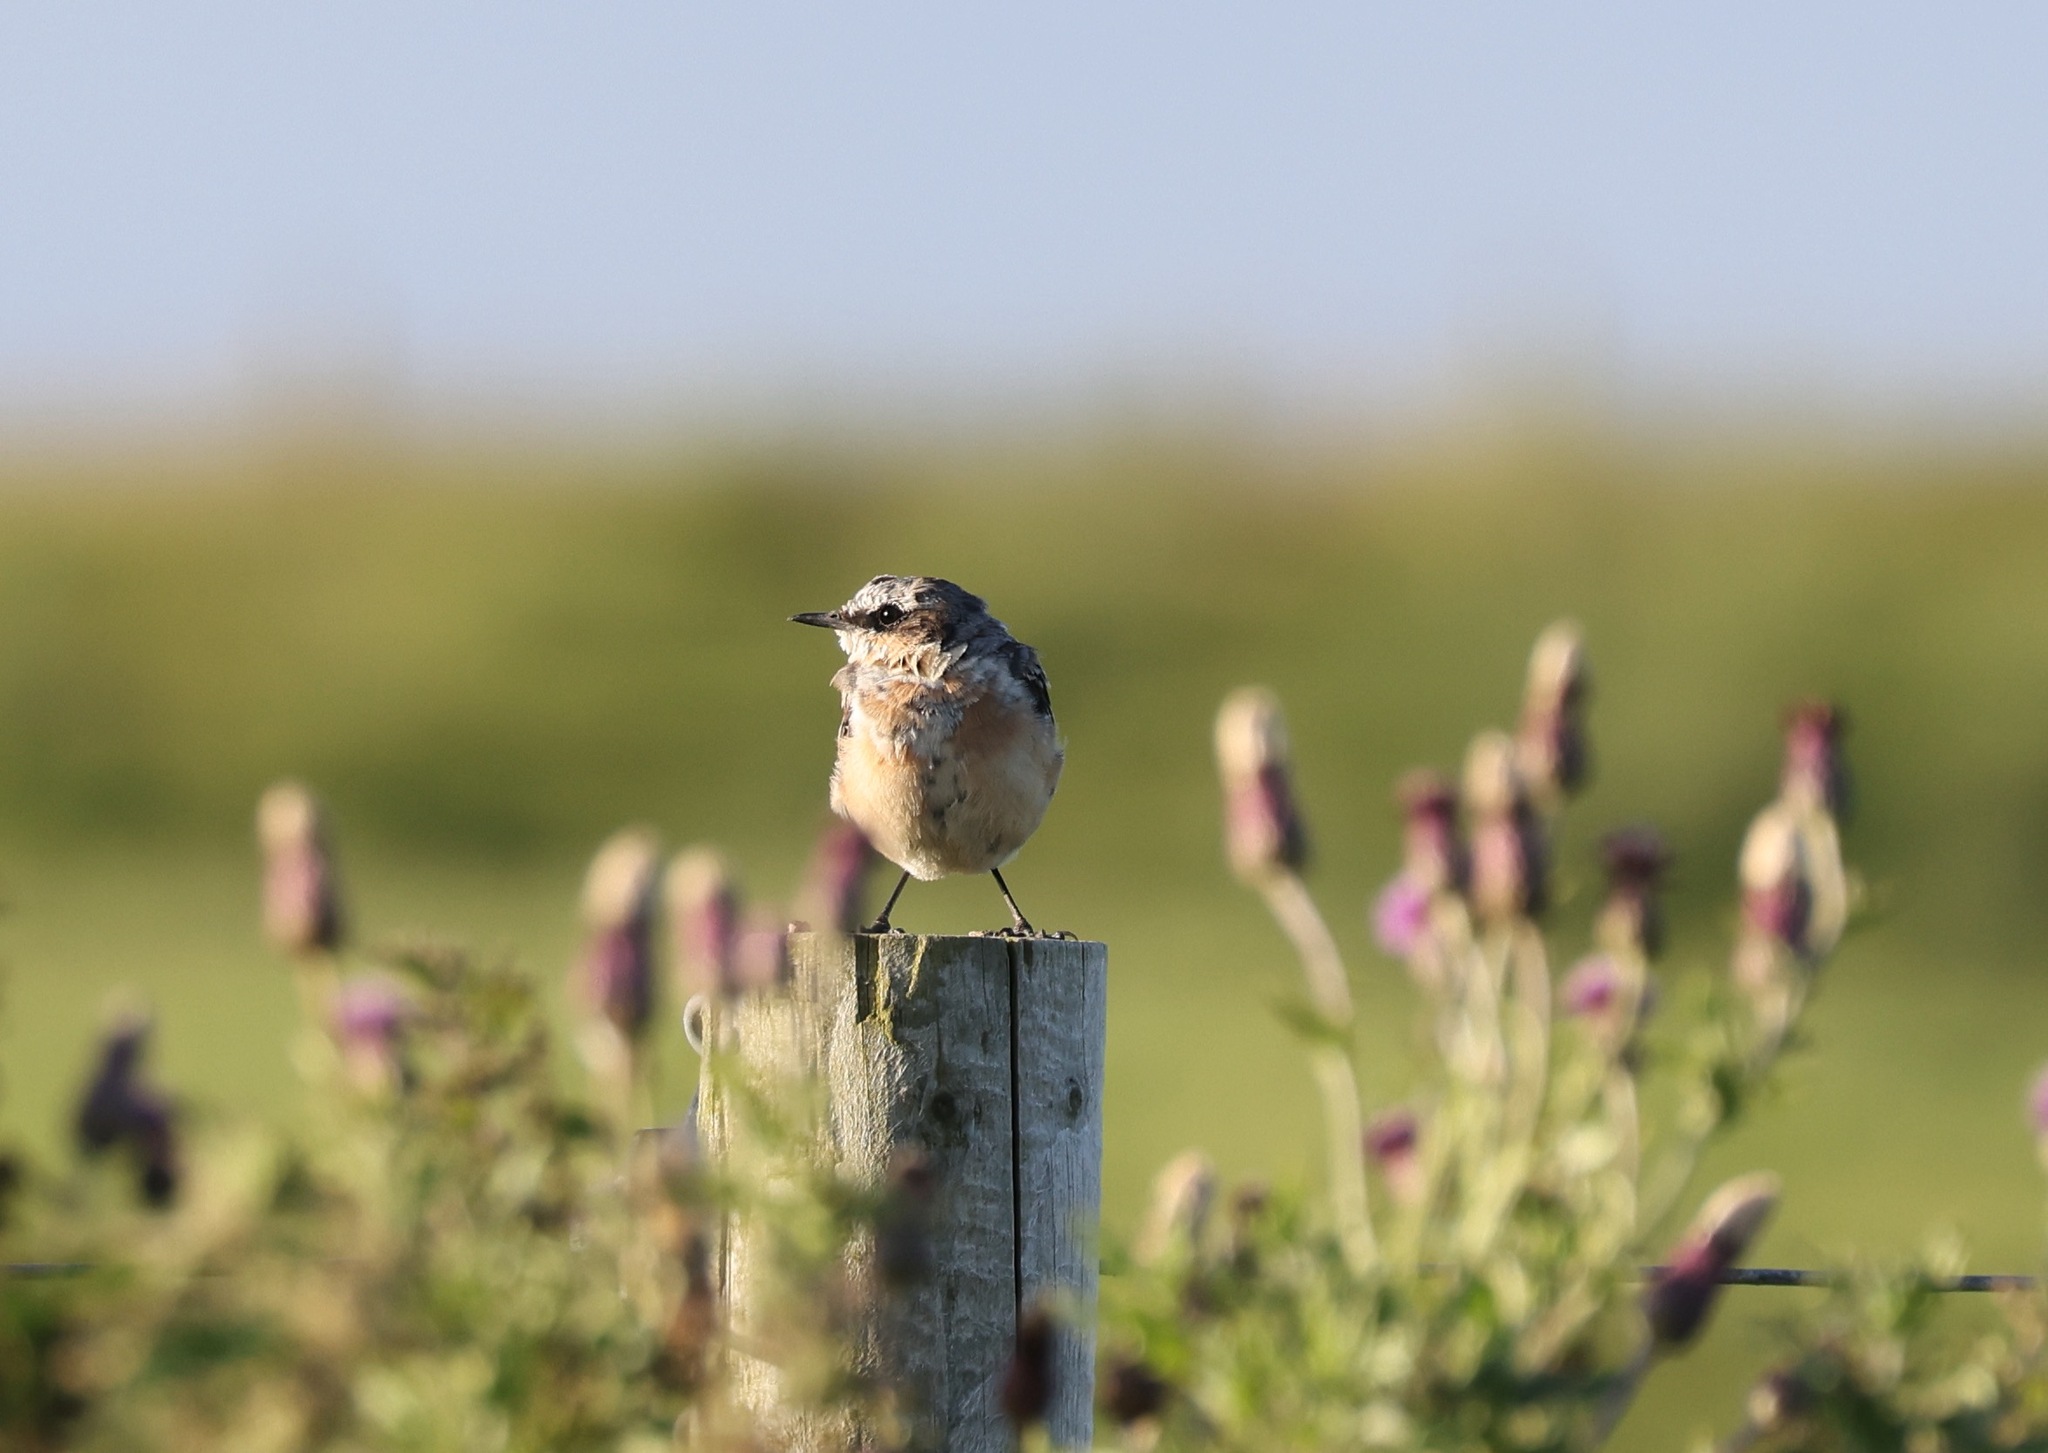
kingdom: Animalia
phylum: Chordata
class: Aves
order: Passeriformes
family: Muscicapidae
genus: Oenanthe
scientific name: Oenanthe oenanthe
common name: Northern wheatear
